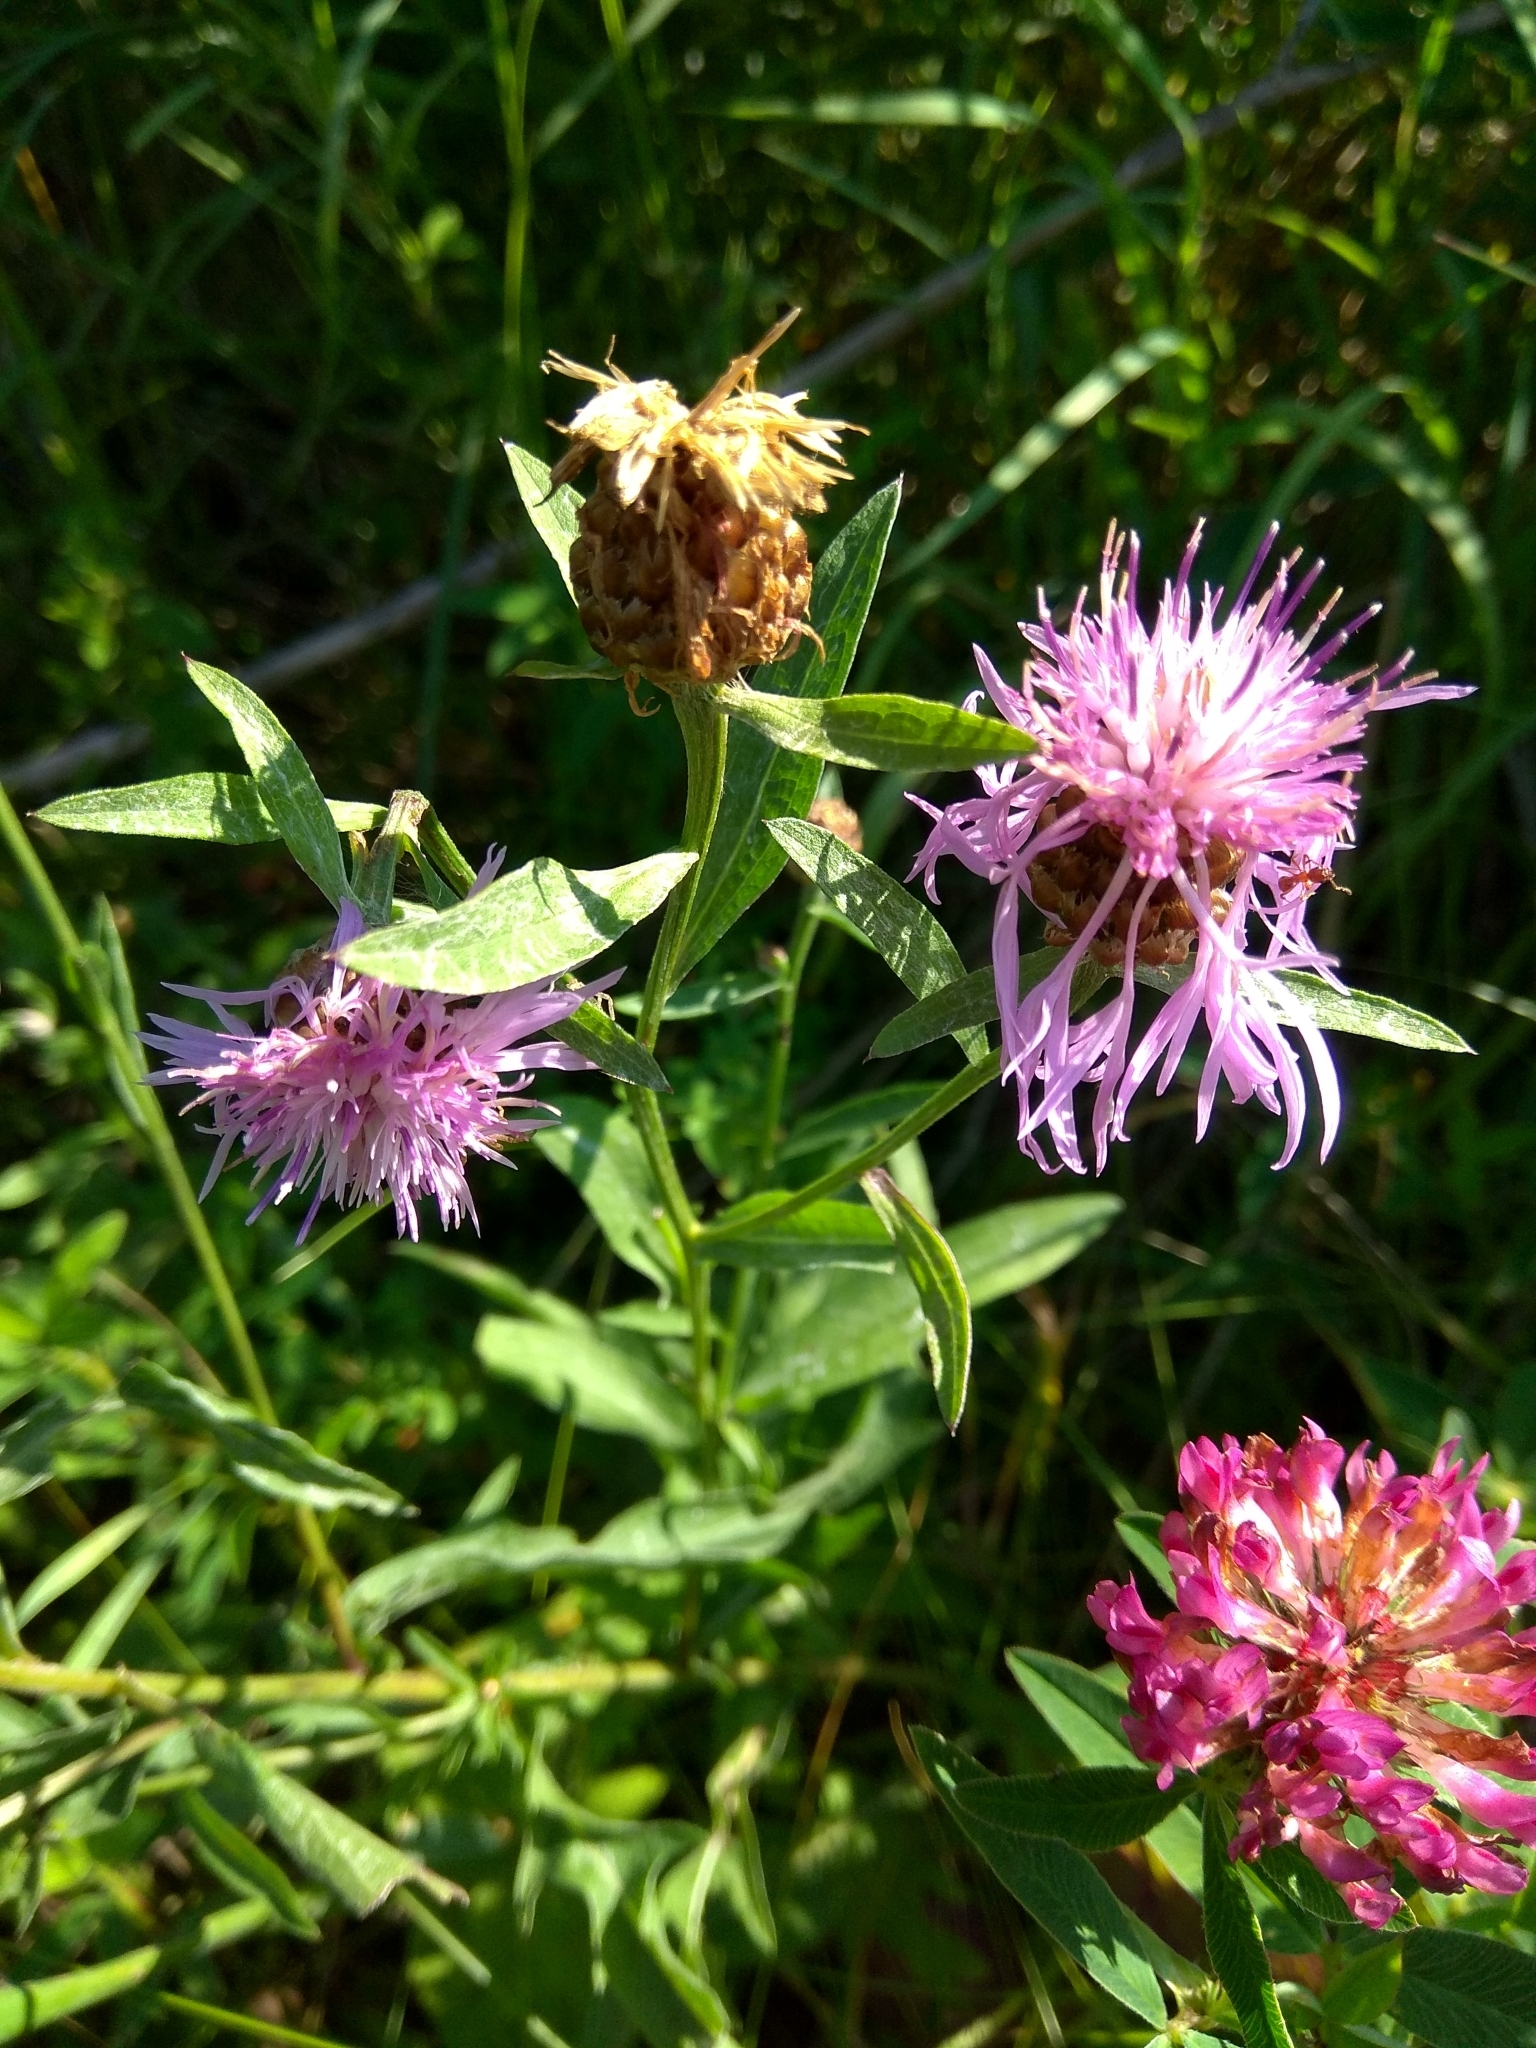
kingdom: Plantae
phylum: Tracheophyta
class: Magnoliopsida
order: Asterales
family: Asteraceae
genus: Centaurea
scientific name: Centaurea jacea
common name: Brown knapweed
